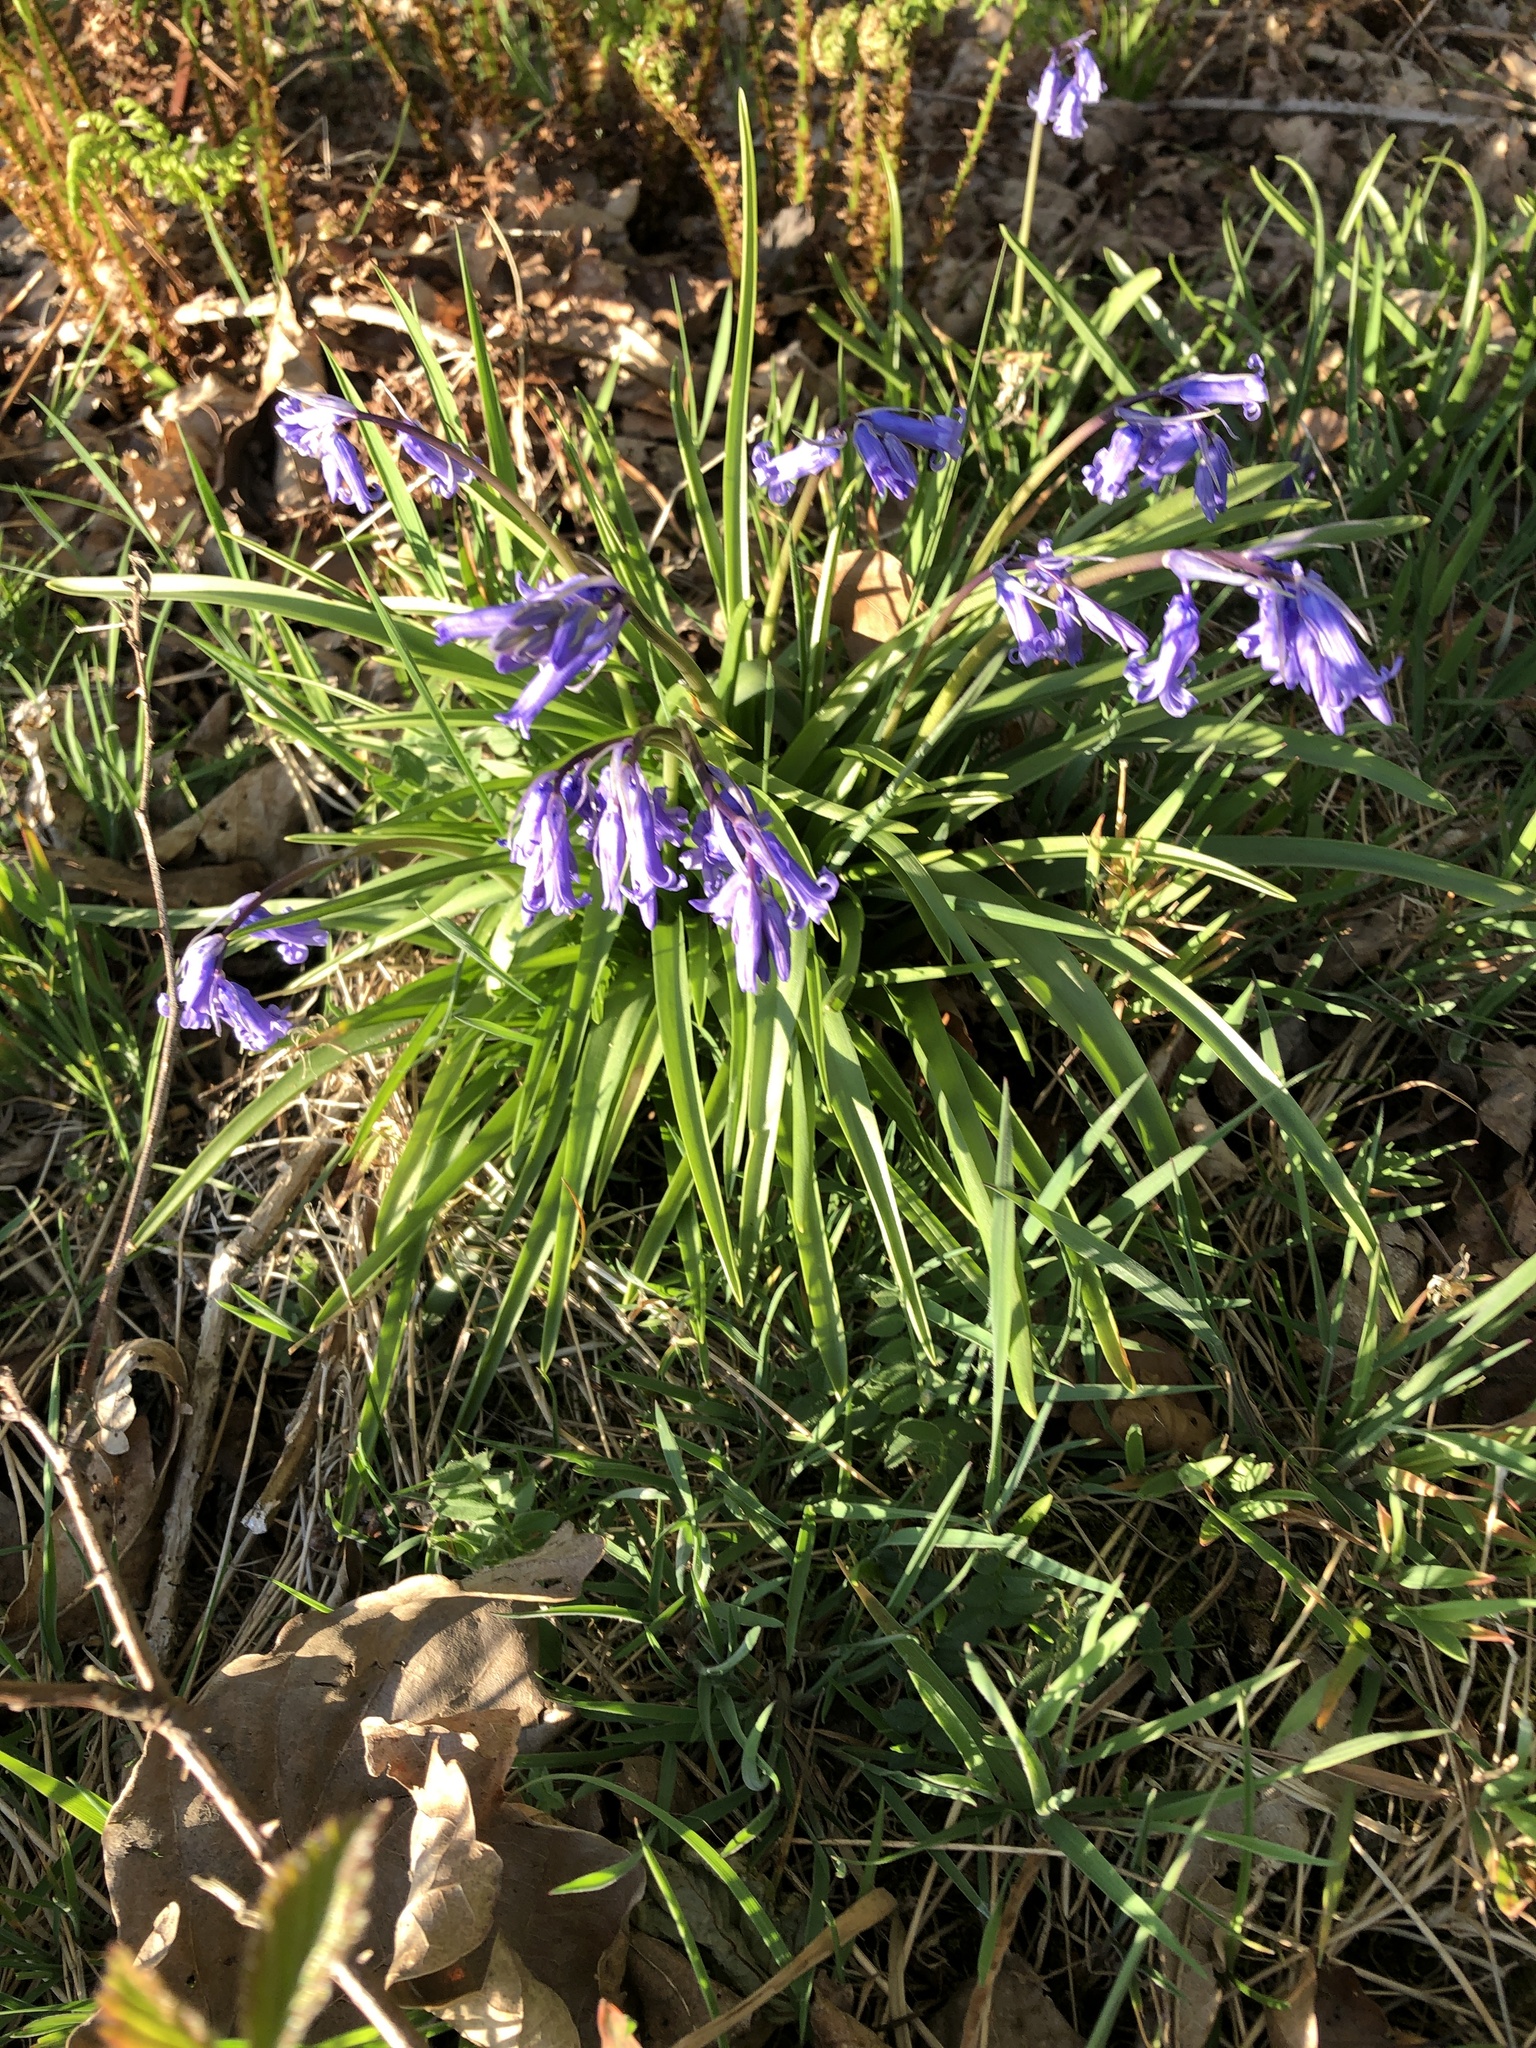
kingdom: Plantae
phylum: Tracheophyta
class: Liliopsida
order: Asparagales
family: Asparagaceae
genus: Hyacinthoides
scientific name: Hyacinthoides non-scripta
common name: Bluebell
